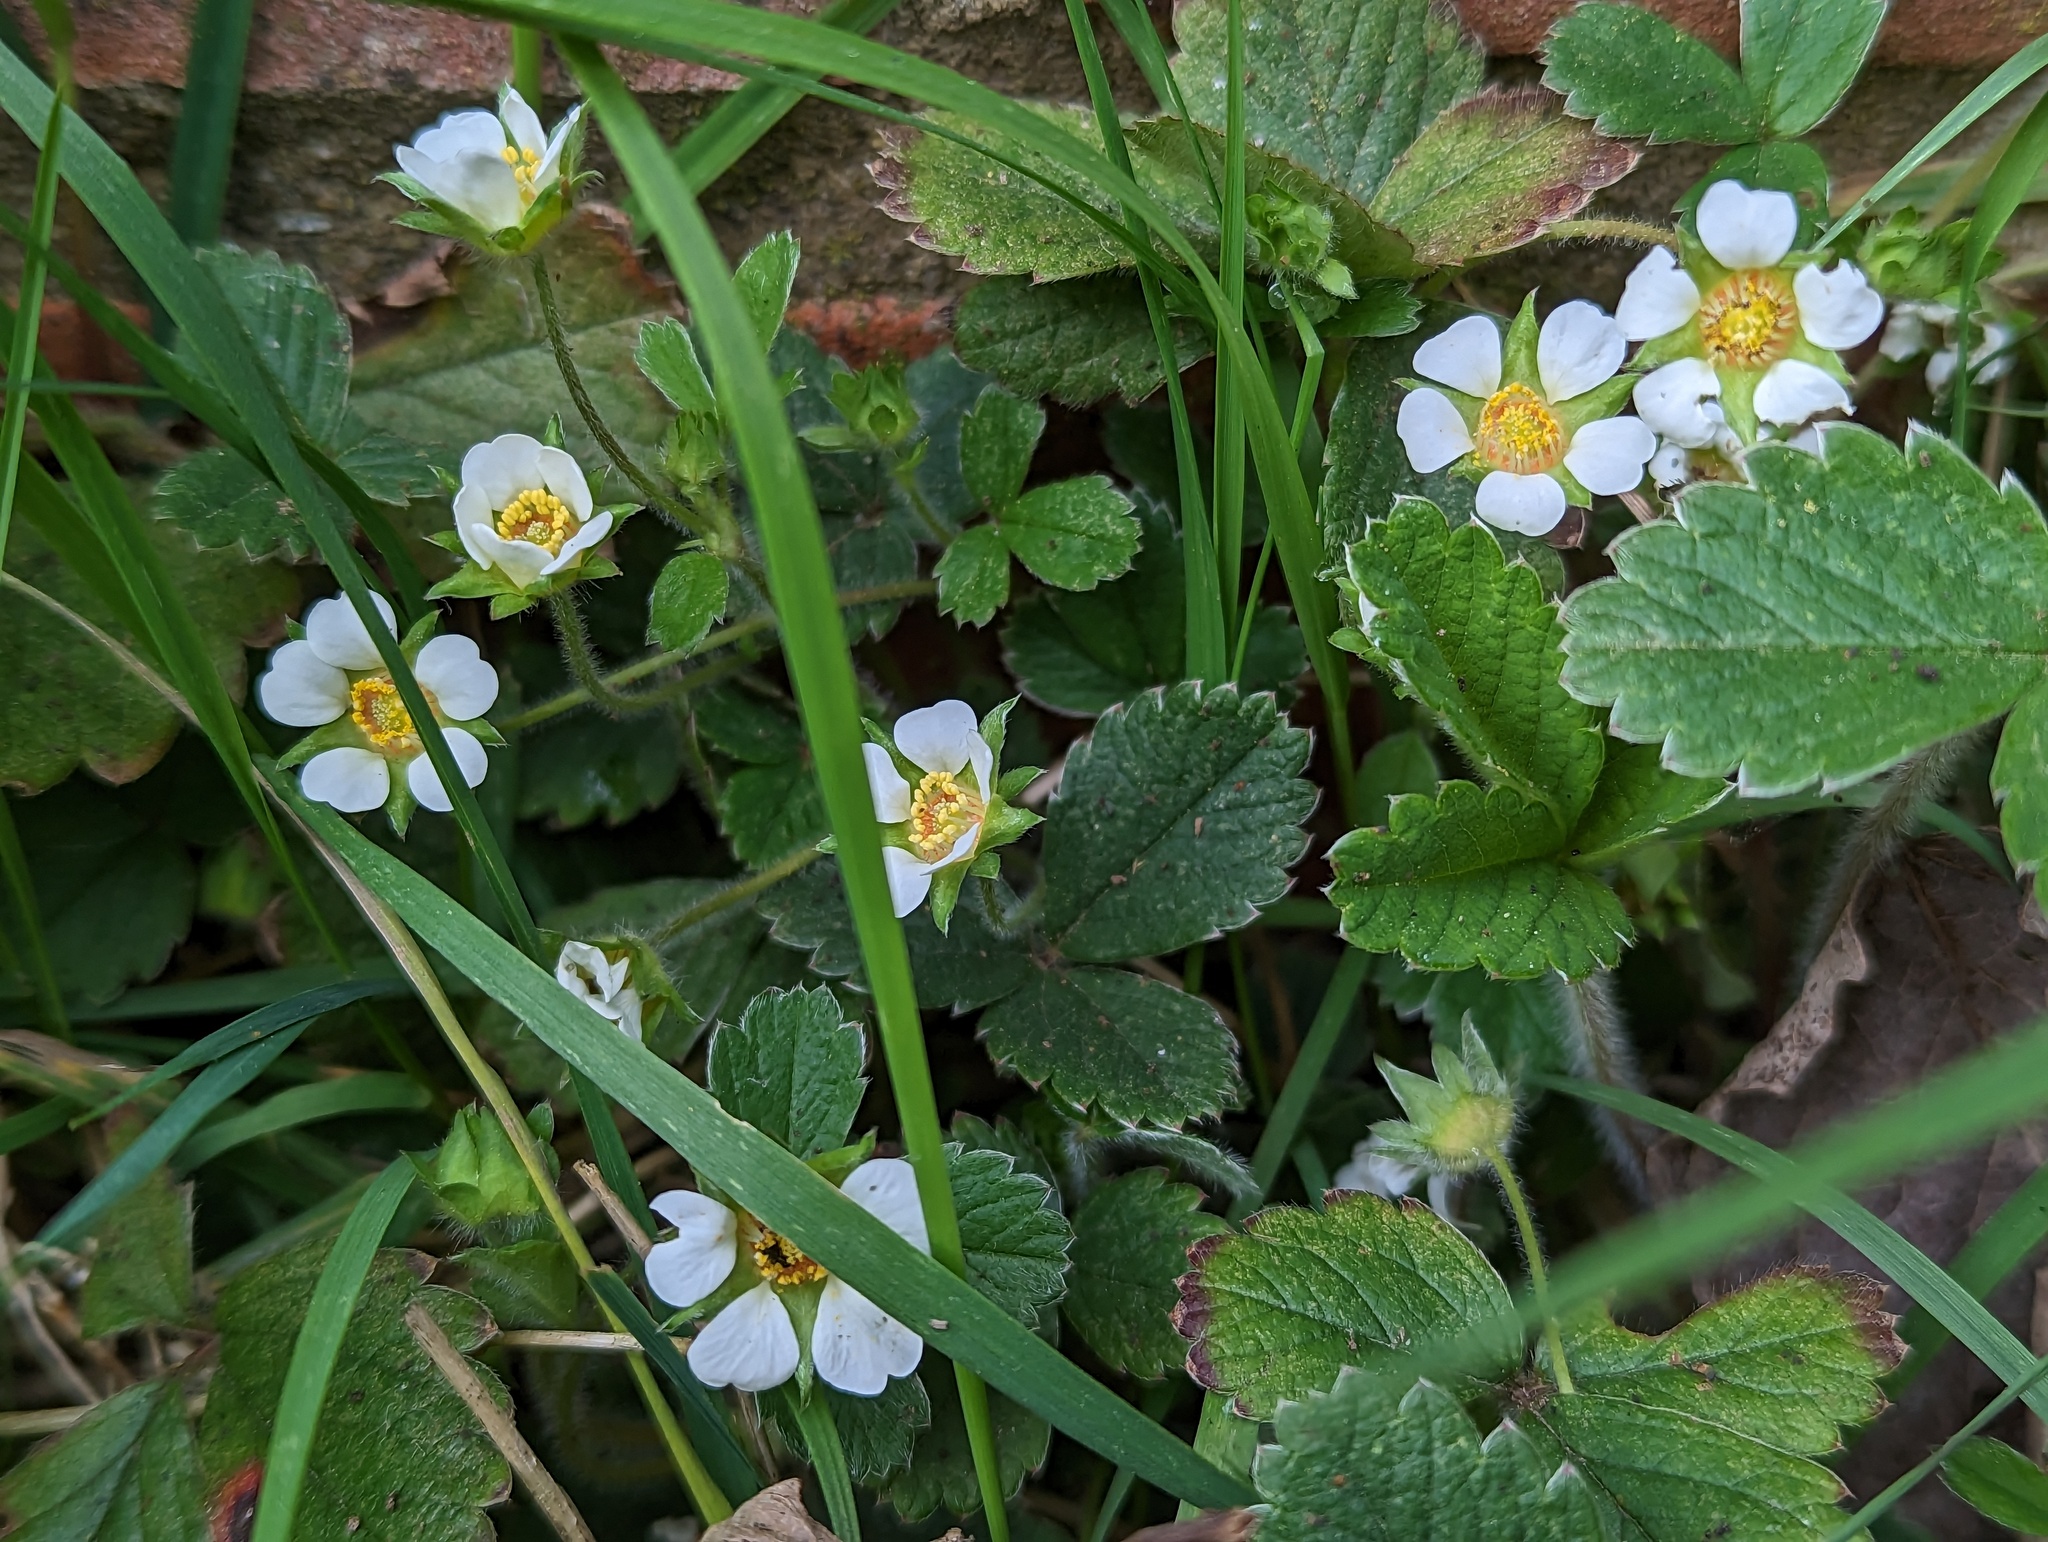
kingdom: Plantae
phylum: Tracheophyta
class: Magnoliopsida
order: Rosales
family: Rosaceae
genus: Potentilla
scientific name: Potentilla sterilis
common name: Barren strawberry
